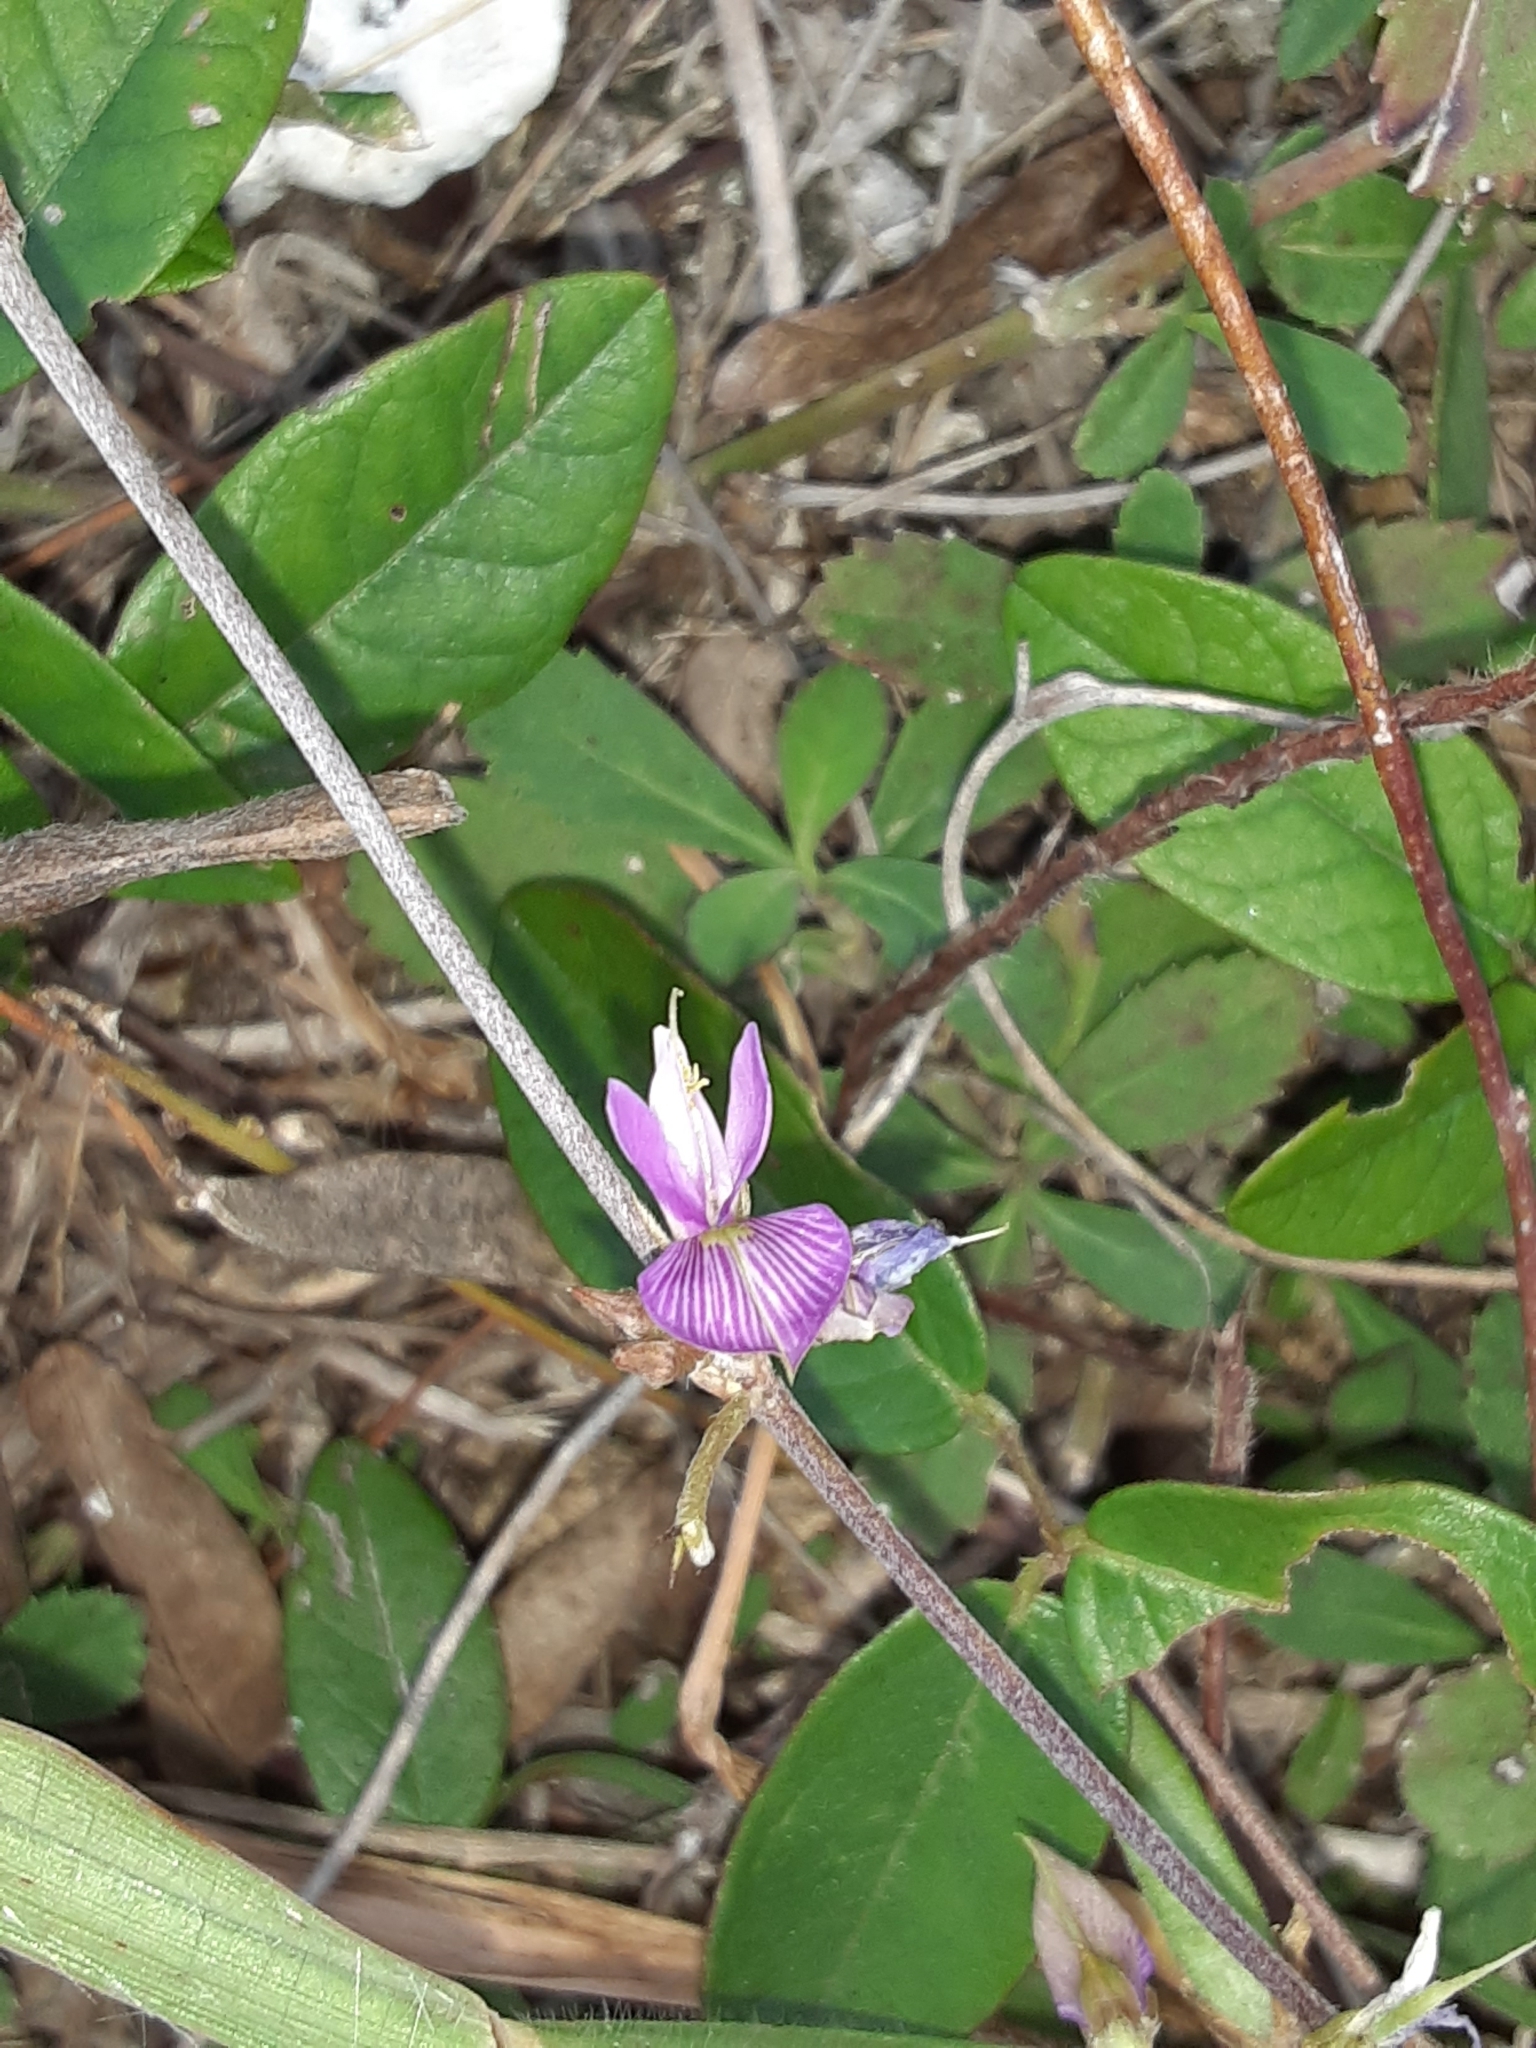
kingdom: Plantae
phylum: Tracheophyta
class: Magnoliopsida
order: Fabales
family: Fabaceae
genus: Galactia
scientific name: Galactia striata
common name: Florida hammock milkpea
